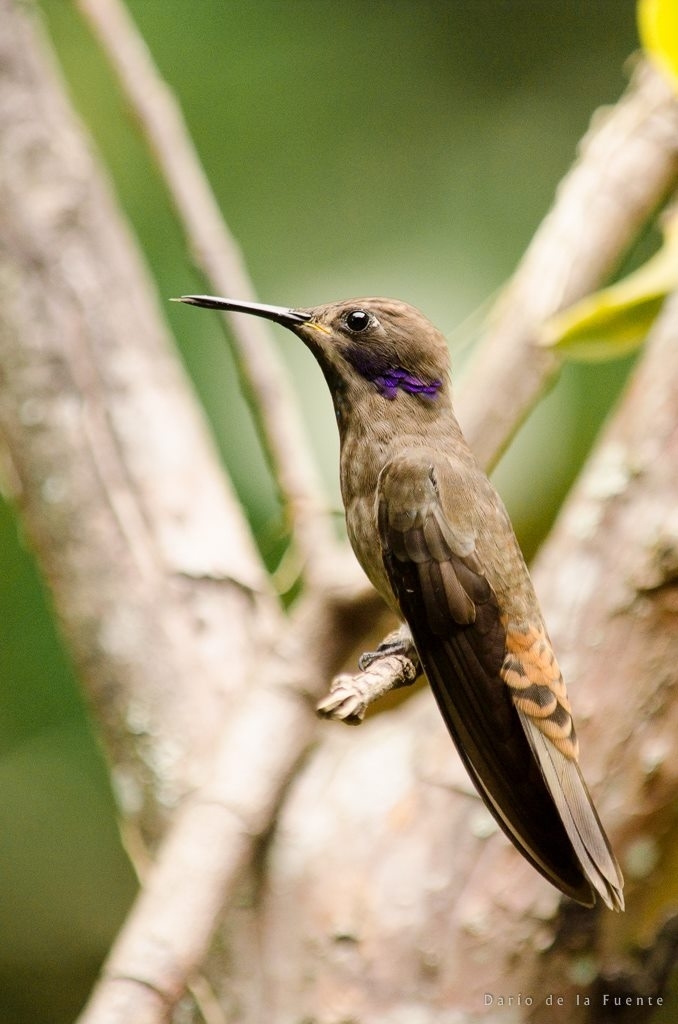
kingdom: Animalia
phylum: Chordata
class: Aves
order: Apodiformes
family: Trochilidae
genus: Colibri
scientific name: Colibri delphinae
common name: Brown violetear
